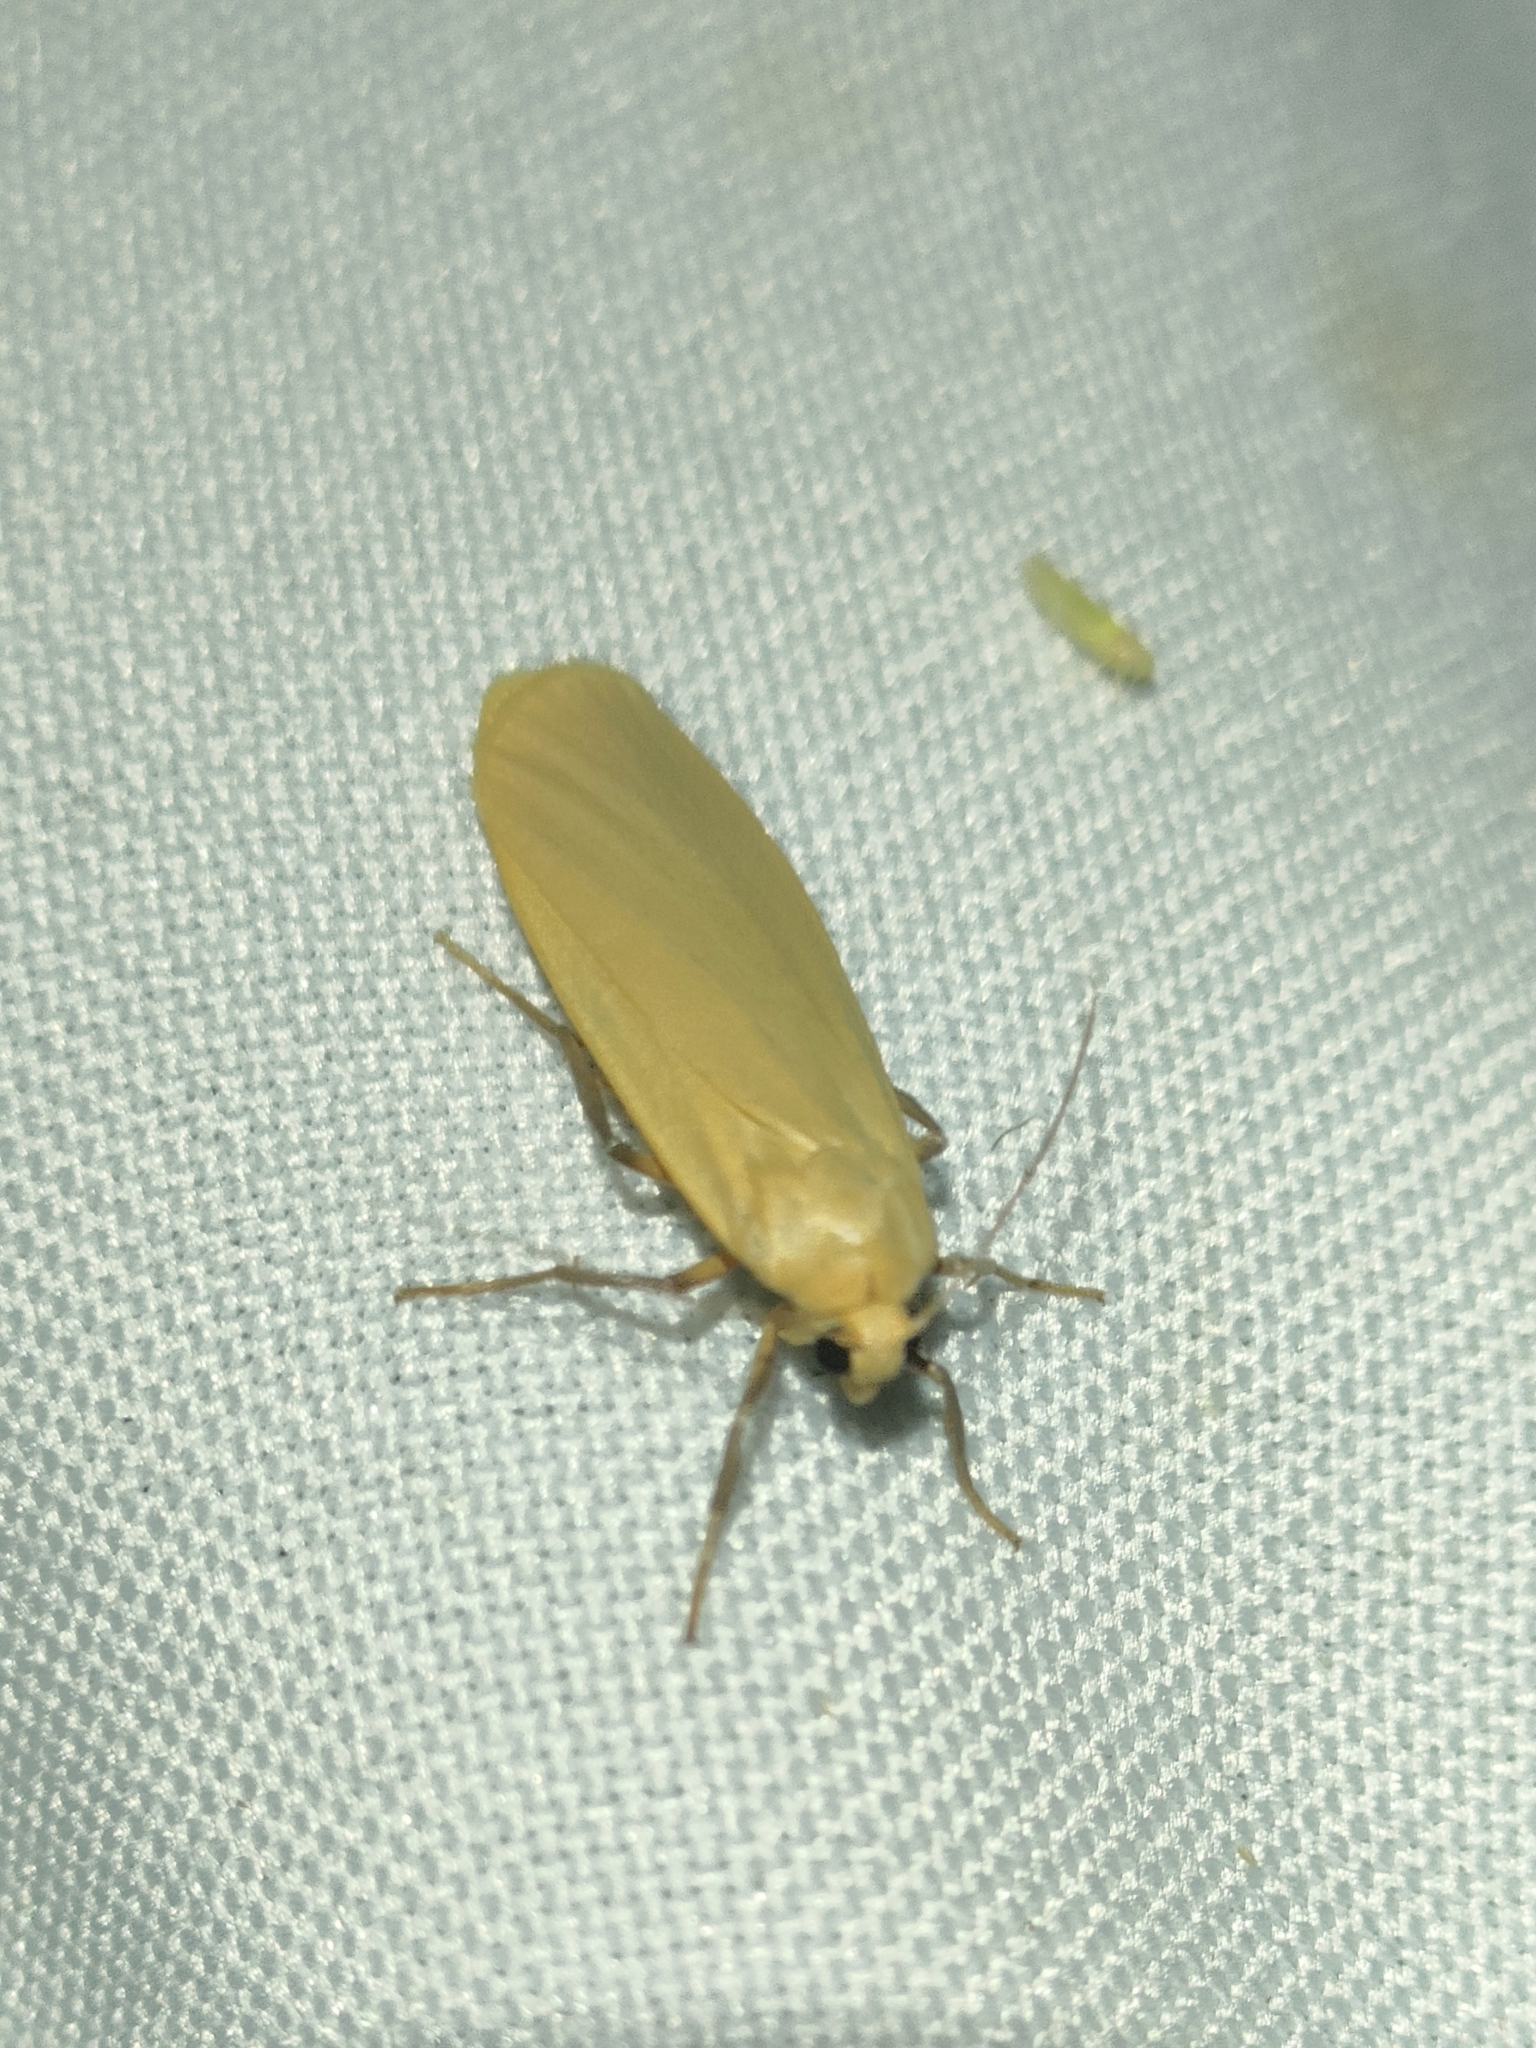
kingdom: Animalia
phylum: Arthropoda
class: Insecta
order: Lepidoptera
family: Erebidae
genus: Wittia
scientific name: Wittia sororcula
